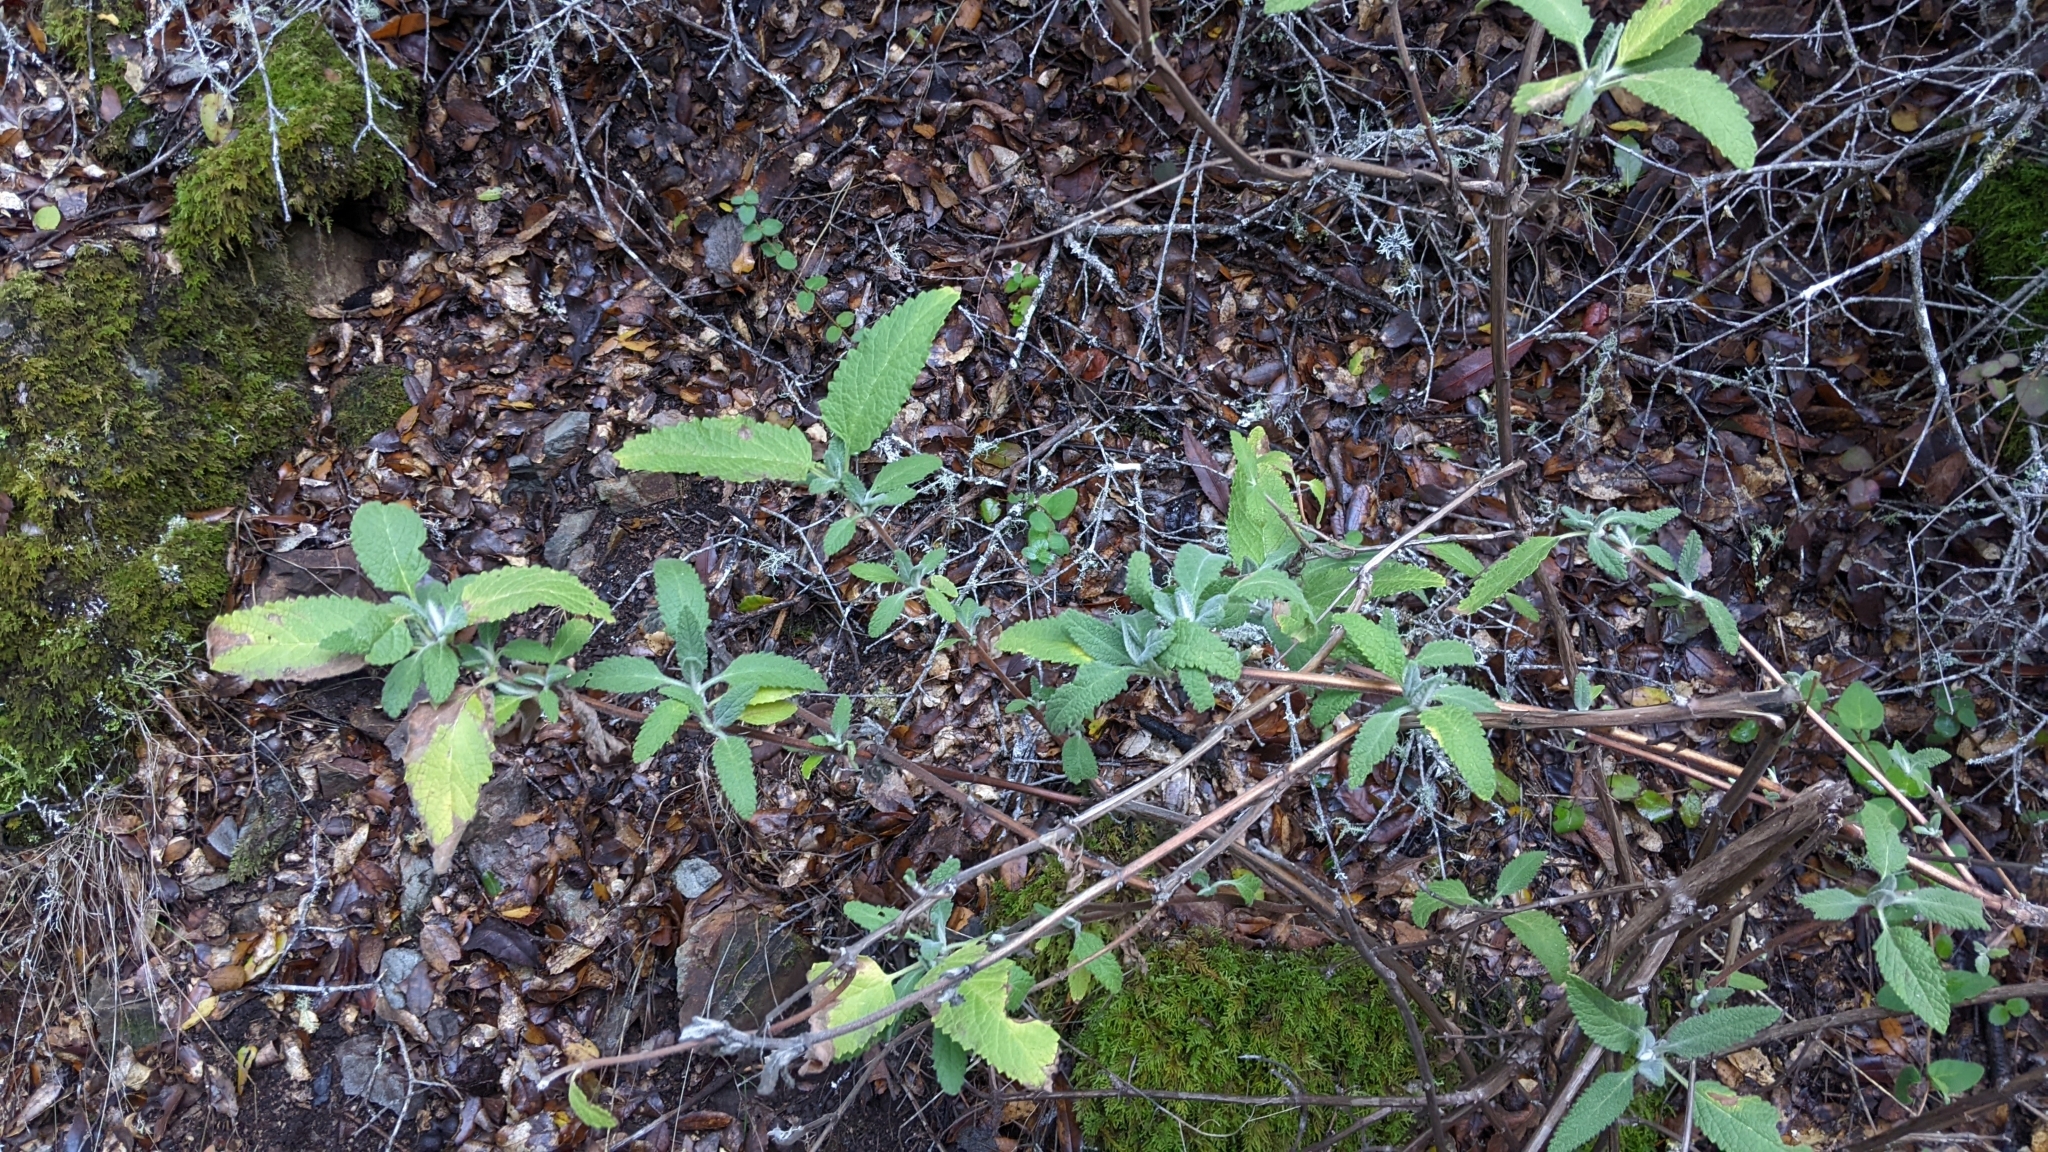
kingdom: Plantae
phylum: Tracheophyta
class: Magnoliopsida
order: Lamiales
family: Lamiaceae
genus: Lepechinia
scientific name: Lepechinia calycina
